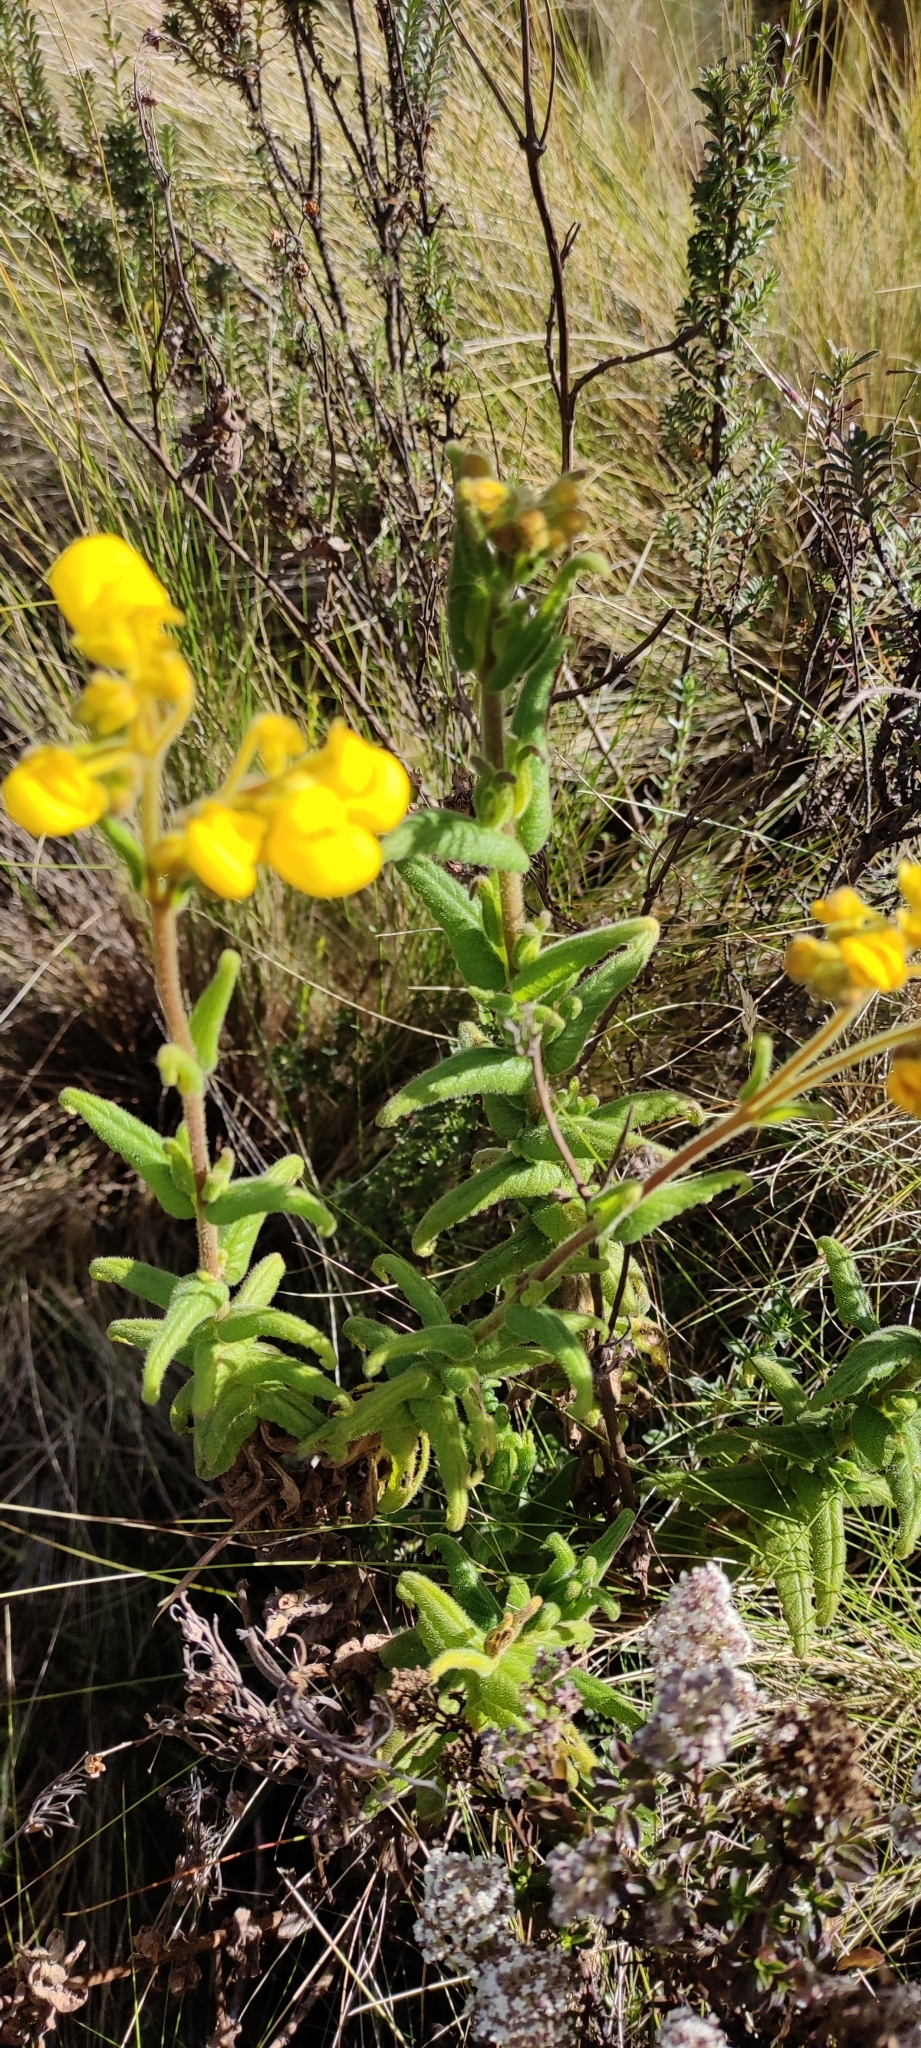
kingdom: Plantae
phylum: Tracheophyta
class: Magnoliopsida
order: Lamiales
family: Calceolariaceae
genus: Calceolaria
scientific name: Calceolaria crenata
